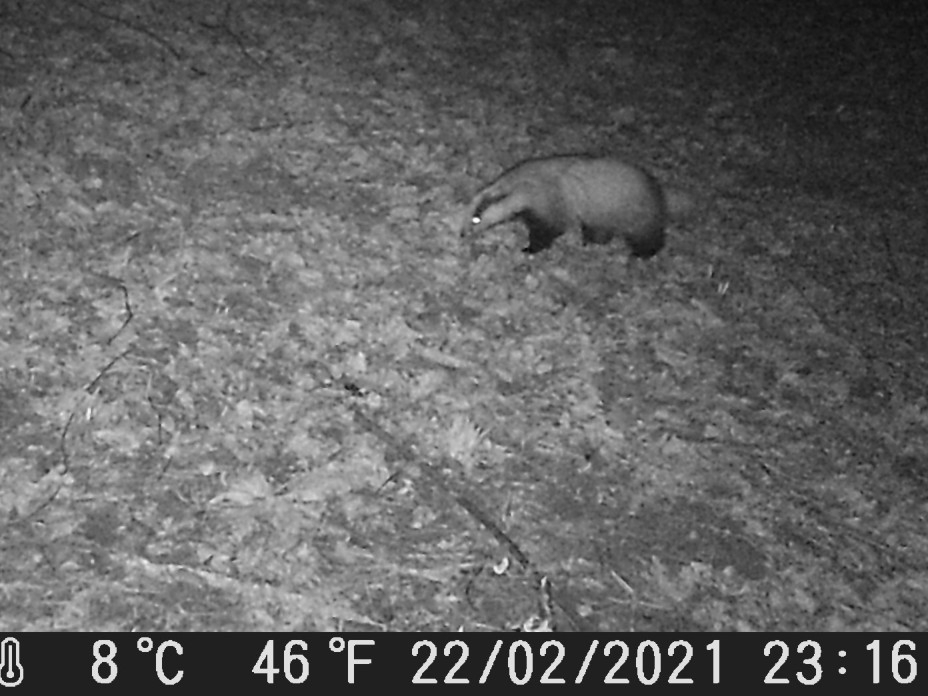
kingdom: Animalia
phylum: Chordata
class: Mammalia
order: Carnivora
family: Mustelidae
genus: Meles
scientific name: Meles meles
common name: Eurasian badger
